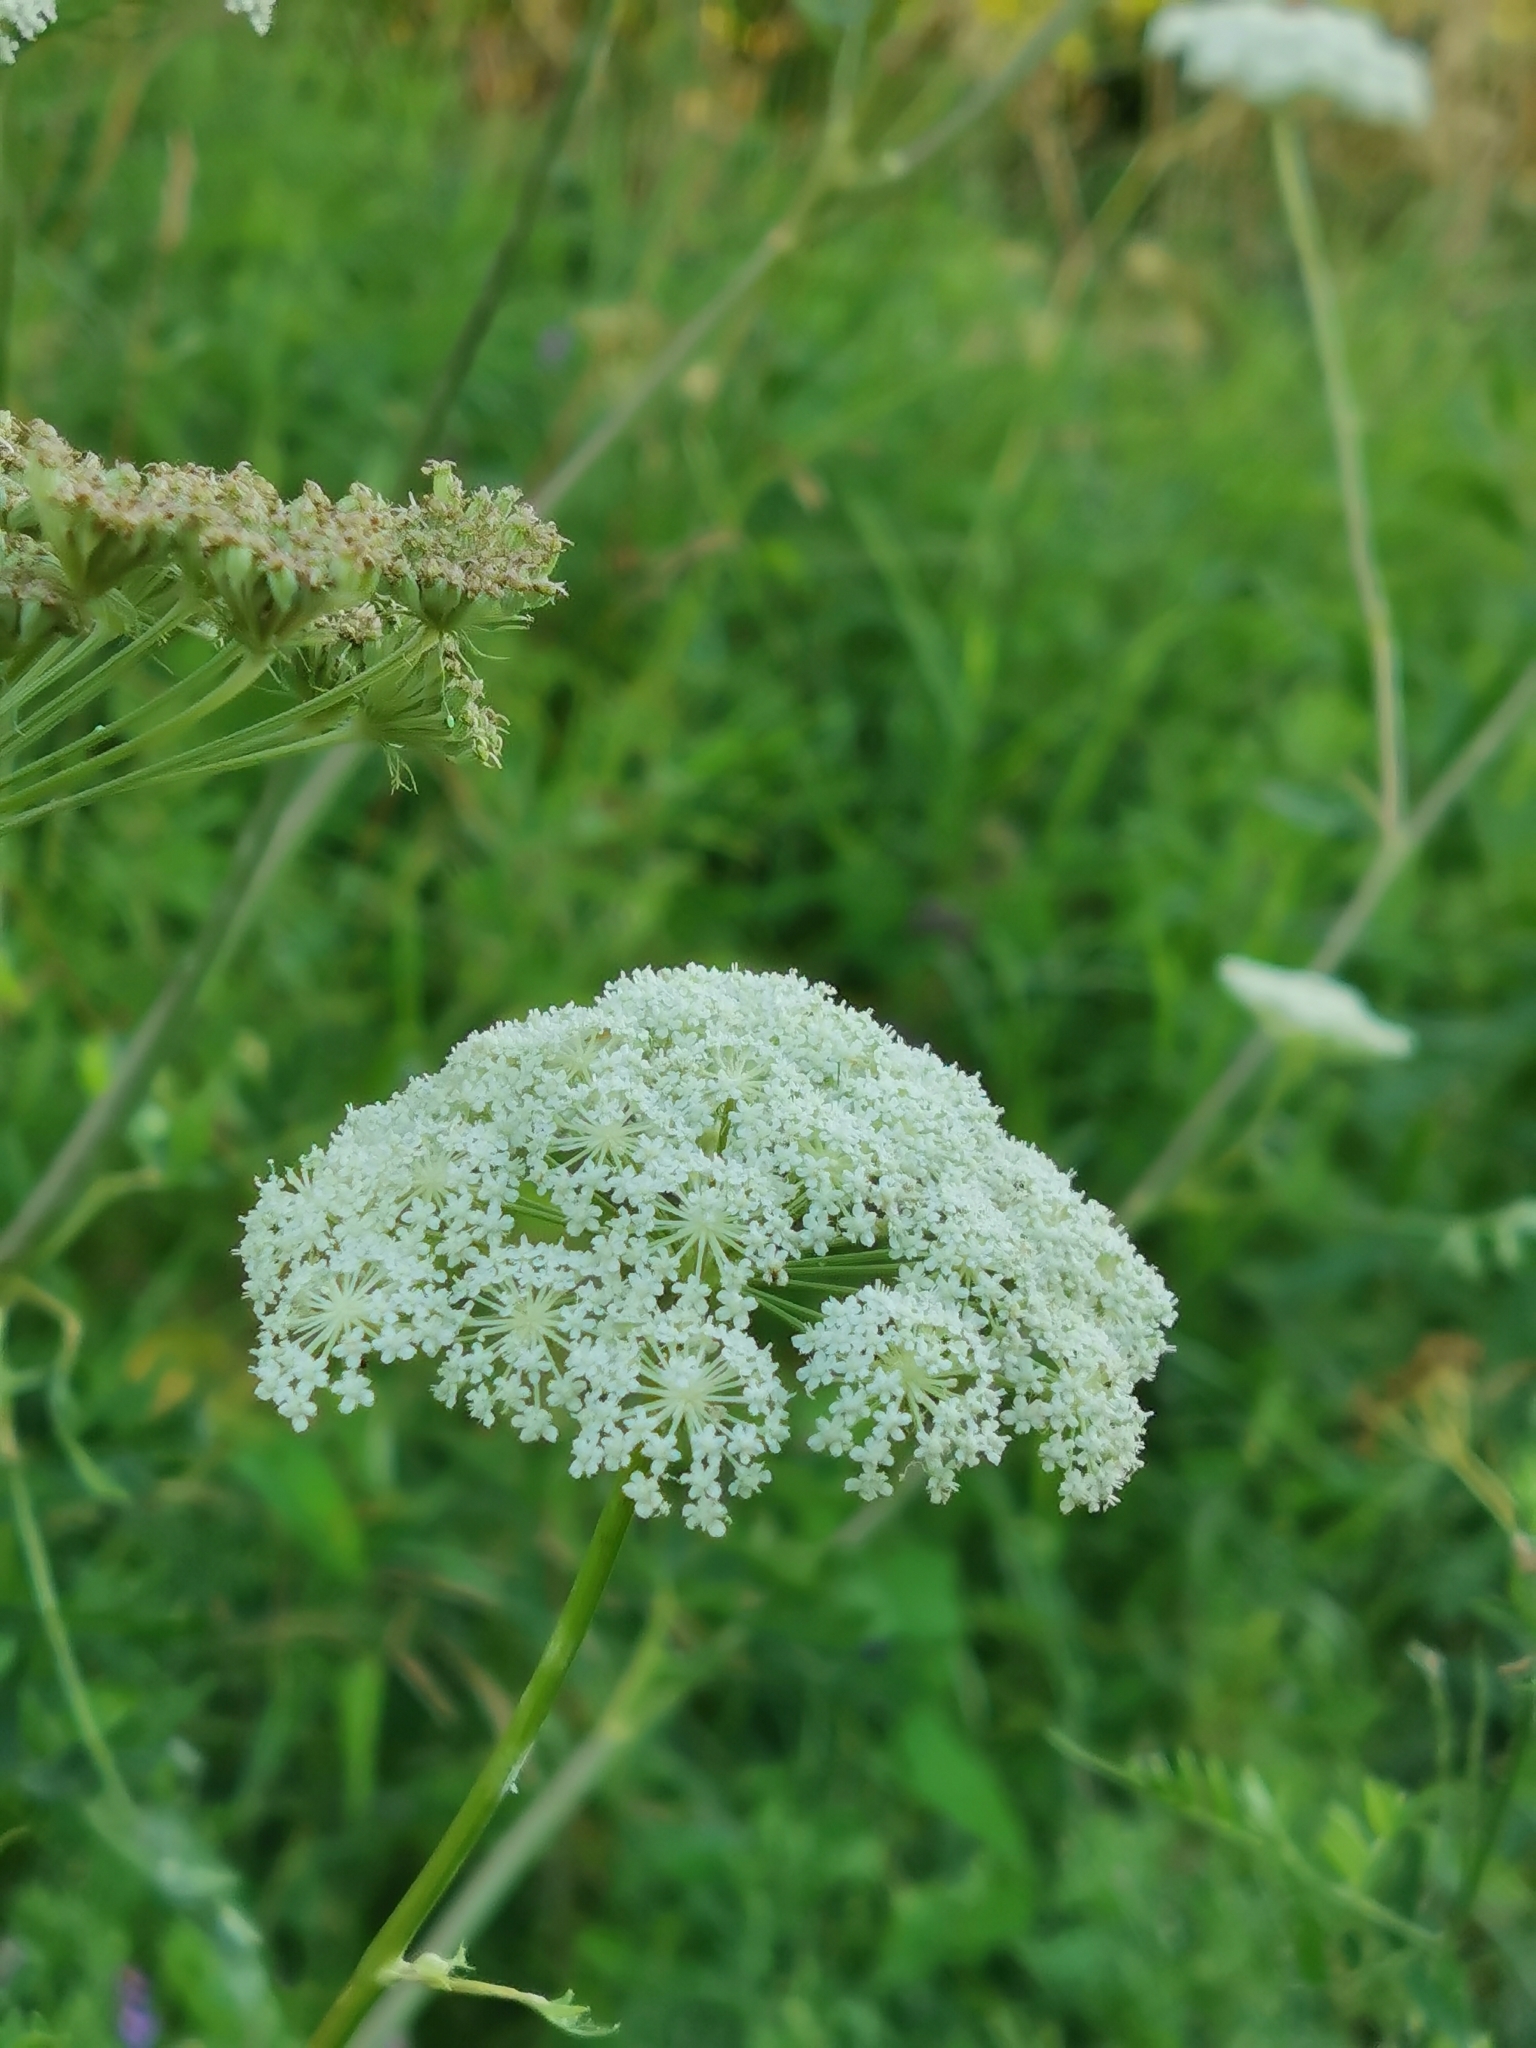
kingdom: Plantae
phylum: Tracheophyta
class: Magnoliopsida
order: Apiales
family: Apiaceae
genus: Seseli
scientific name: Seseli libanotis
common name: Mooncarrot
